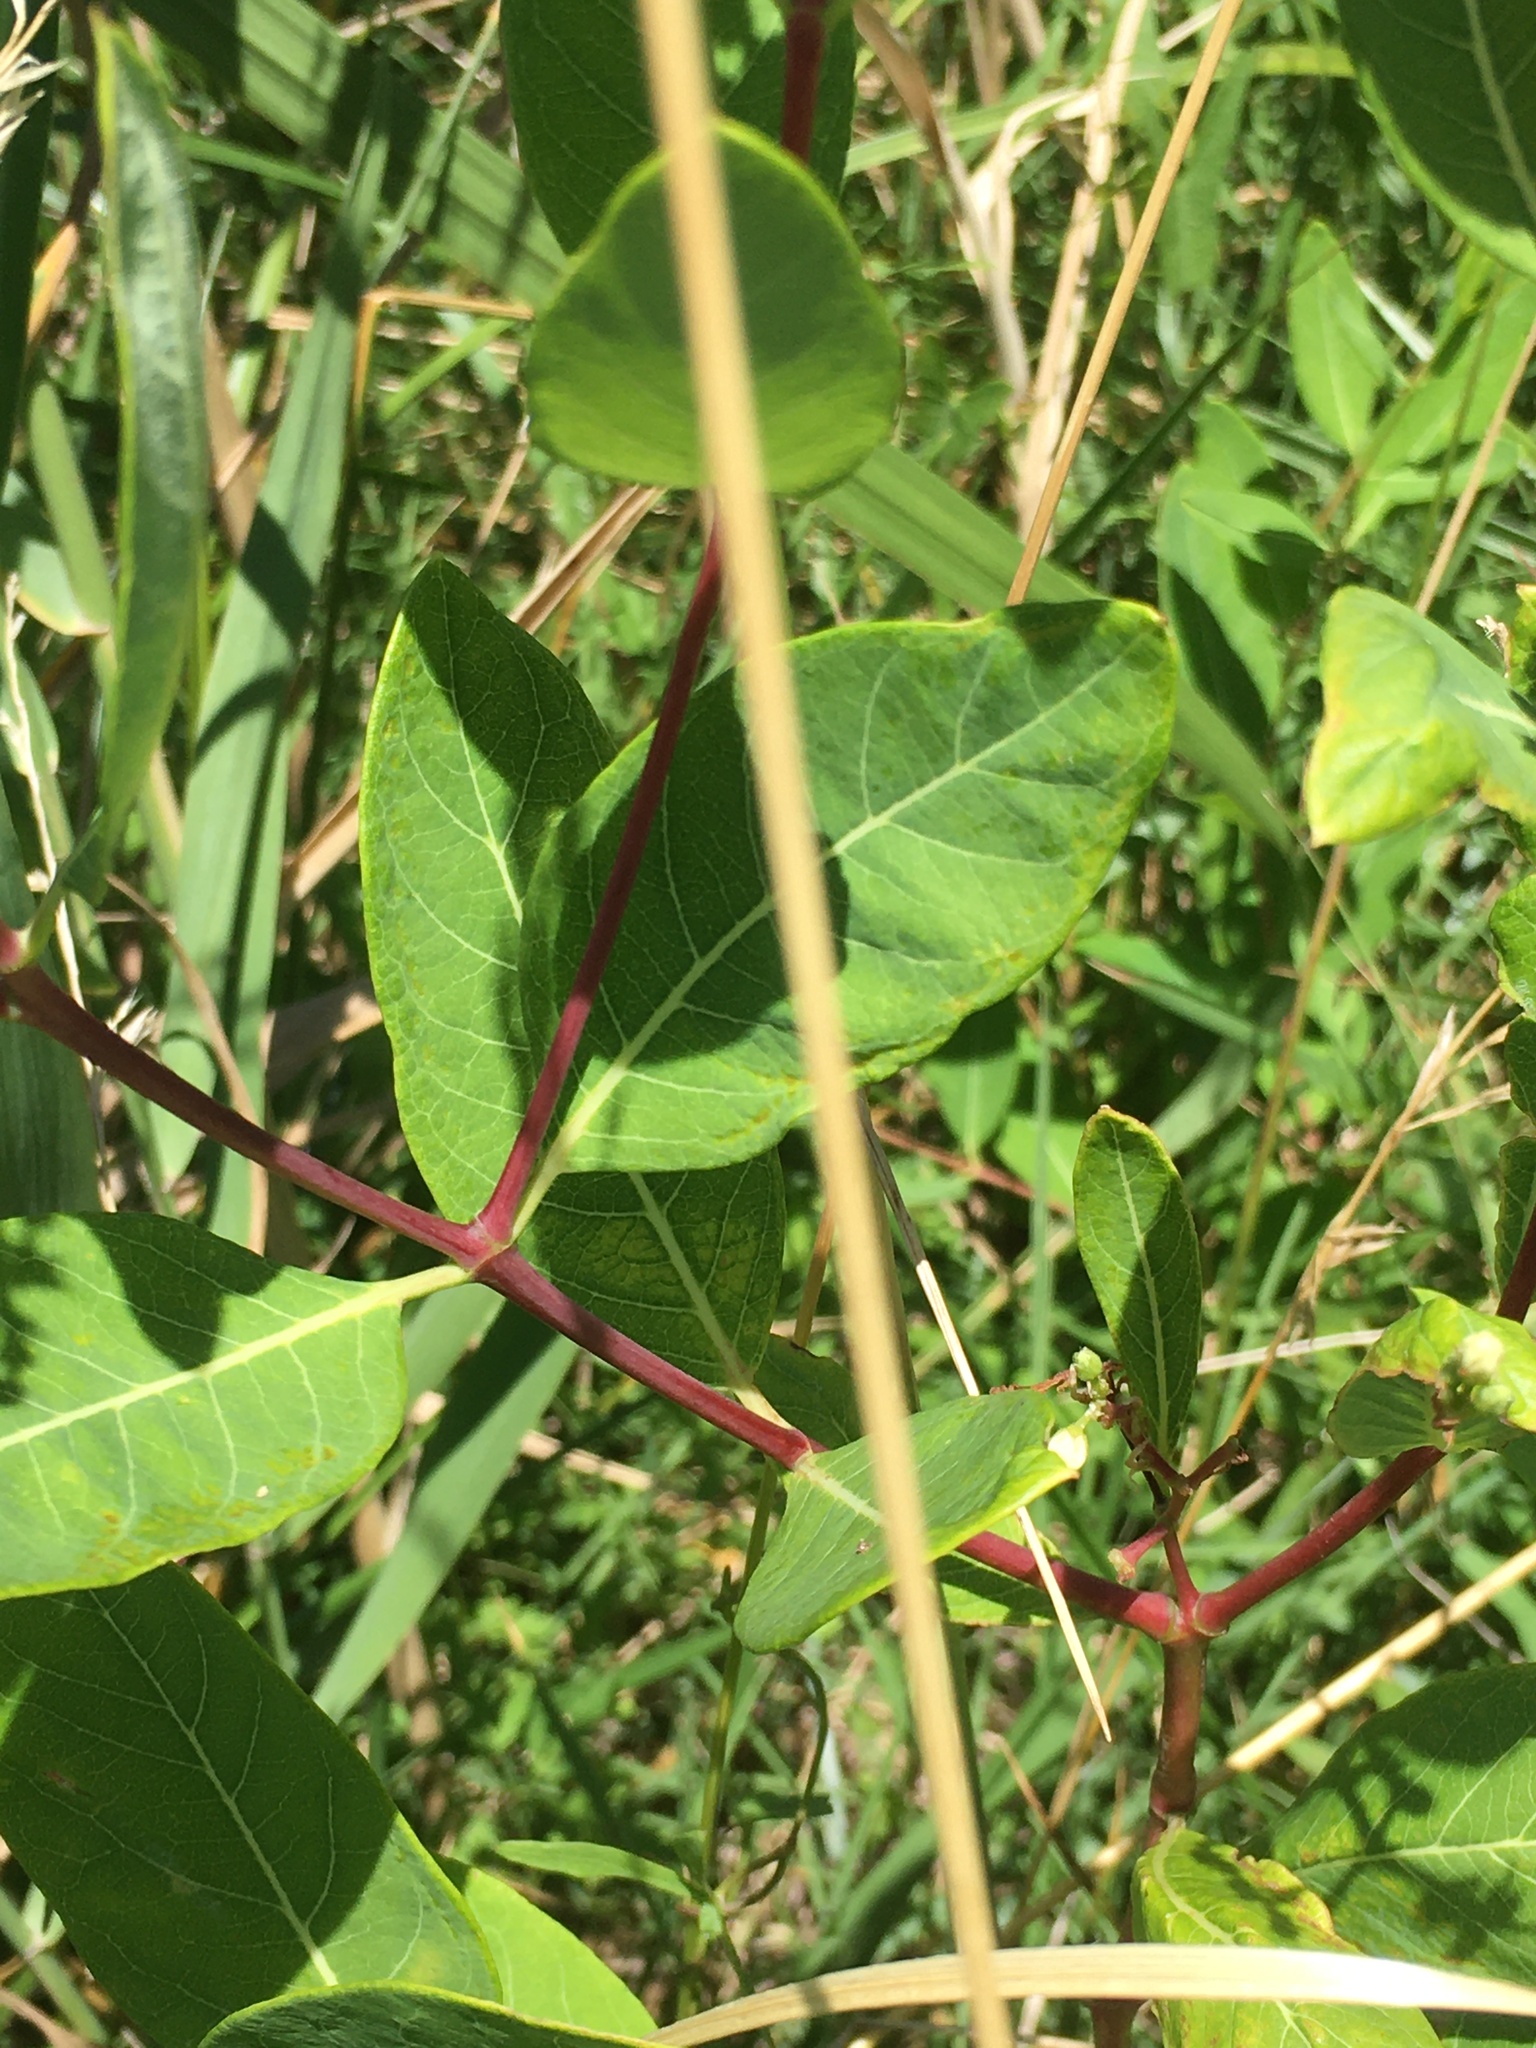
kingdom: Plantae
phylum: Tracheophyta
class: Magnoliopsida
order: Gentianales
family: Apocynaceae
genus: Apocynum
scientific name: Apocynum cannabinum
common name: Hemp dogbane
